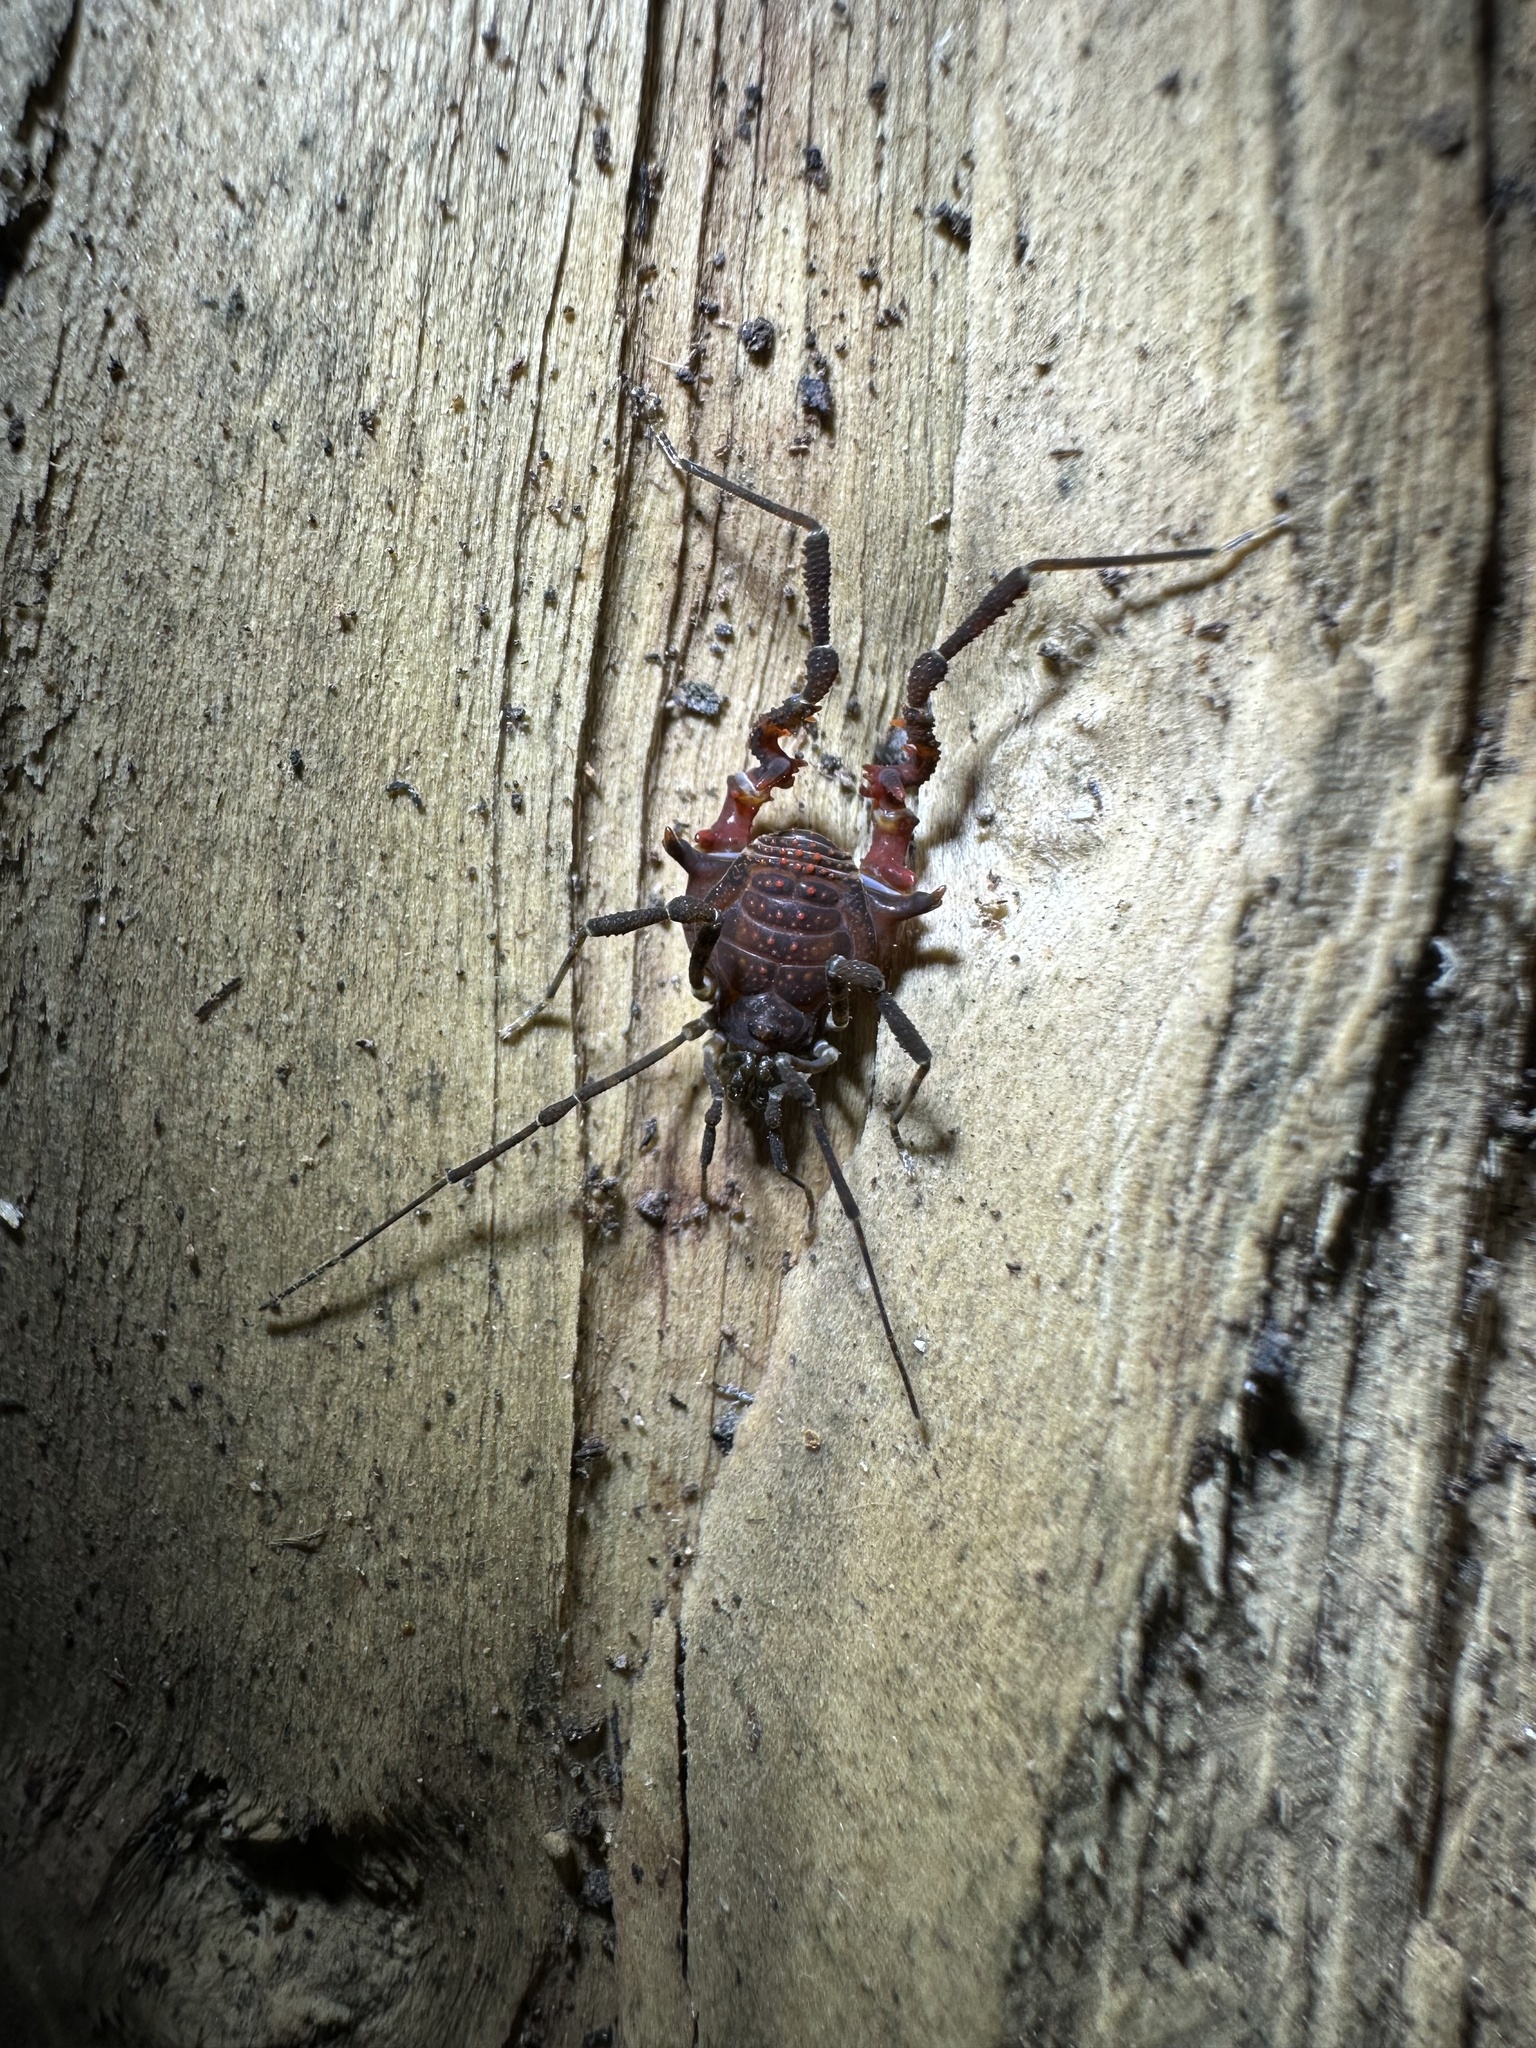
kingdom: Animalia
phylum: Arthropoda
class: Arachnida
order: Opiliones
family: Gonyleptidae
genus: Metabalta
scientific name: Metabalta polyhastata
